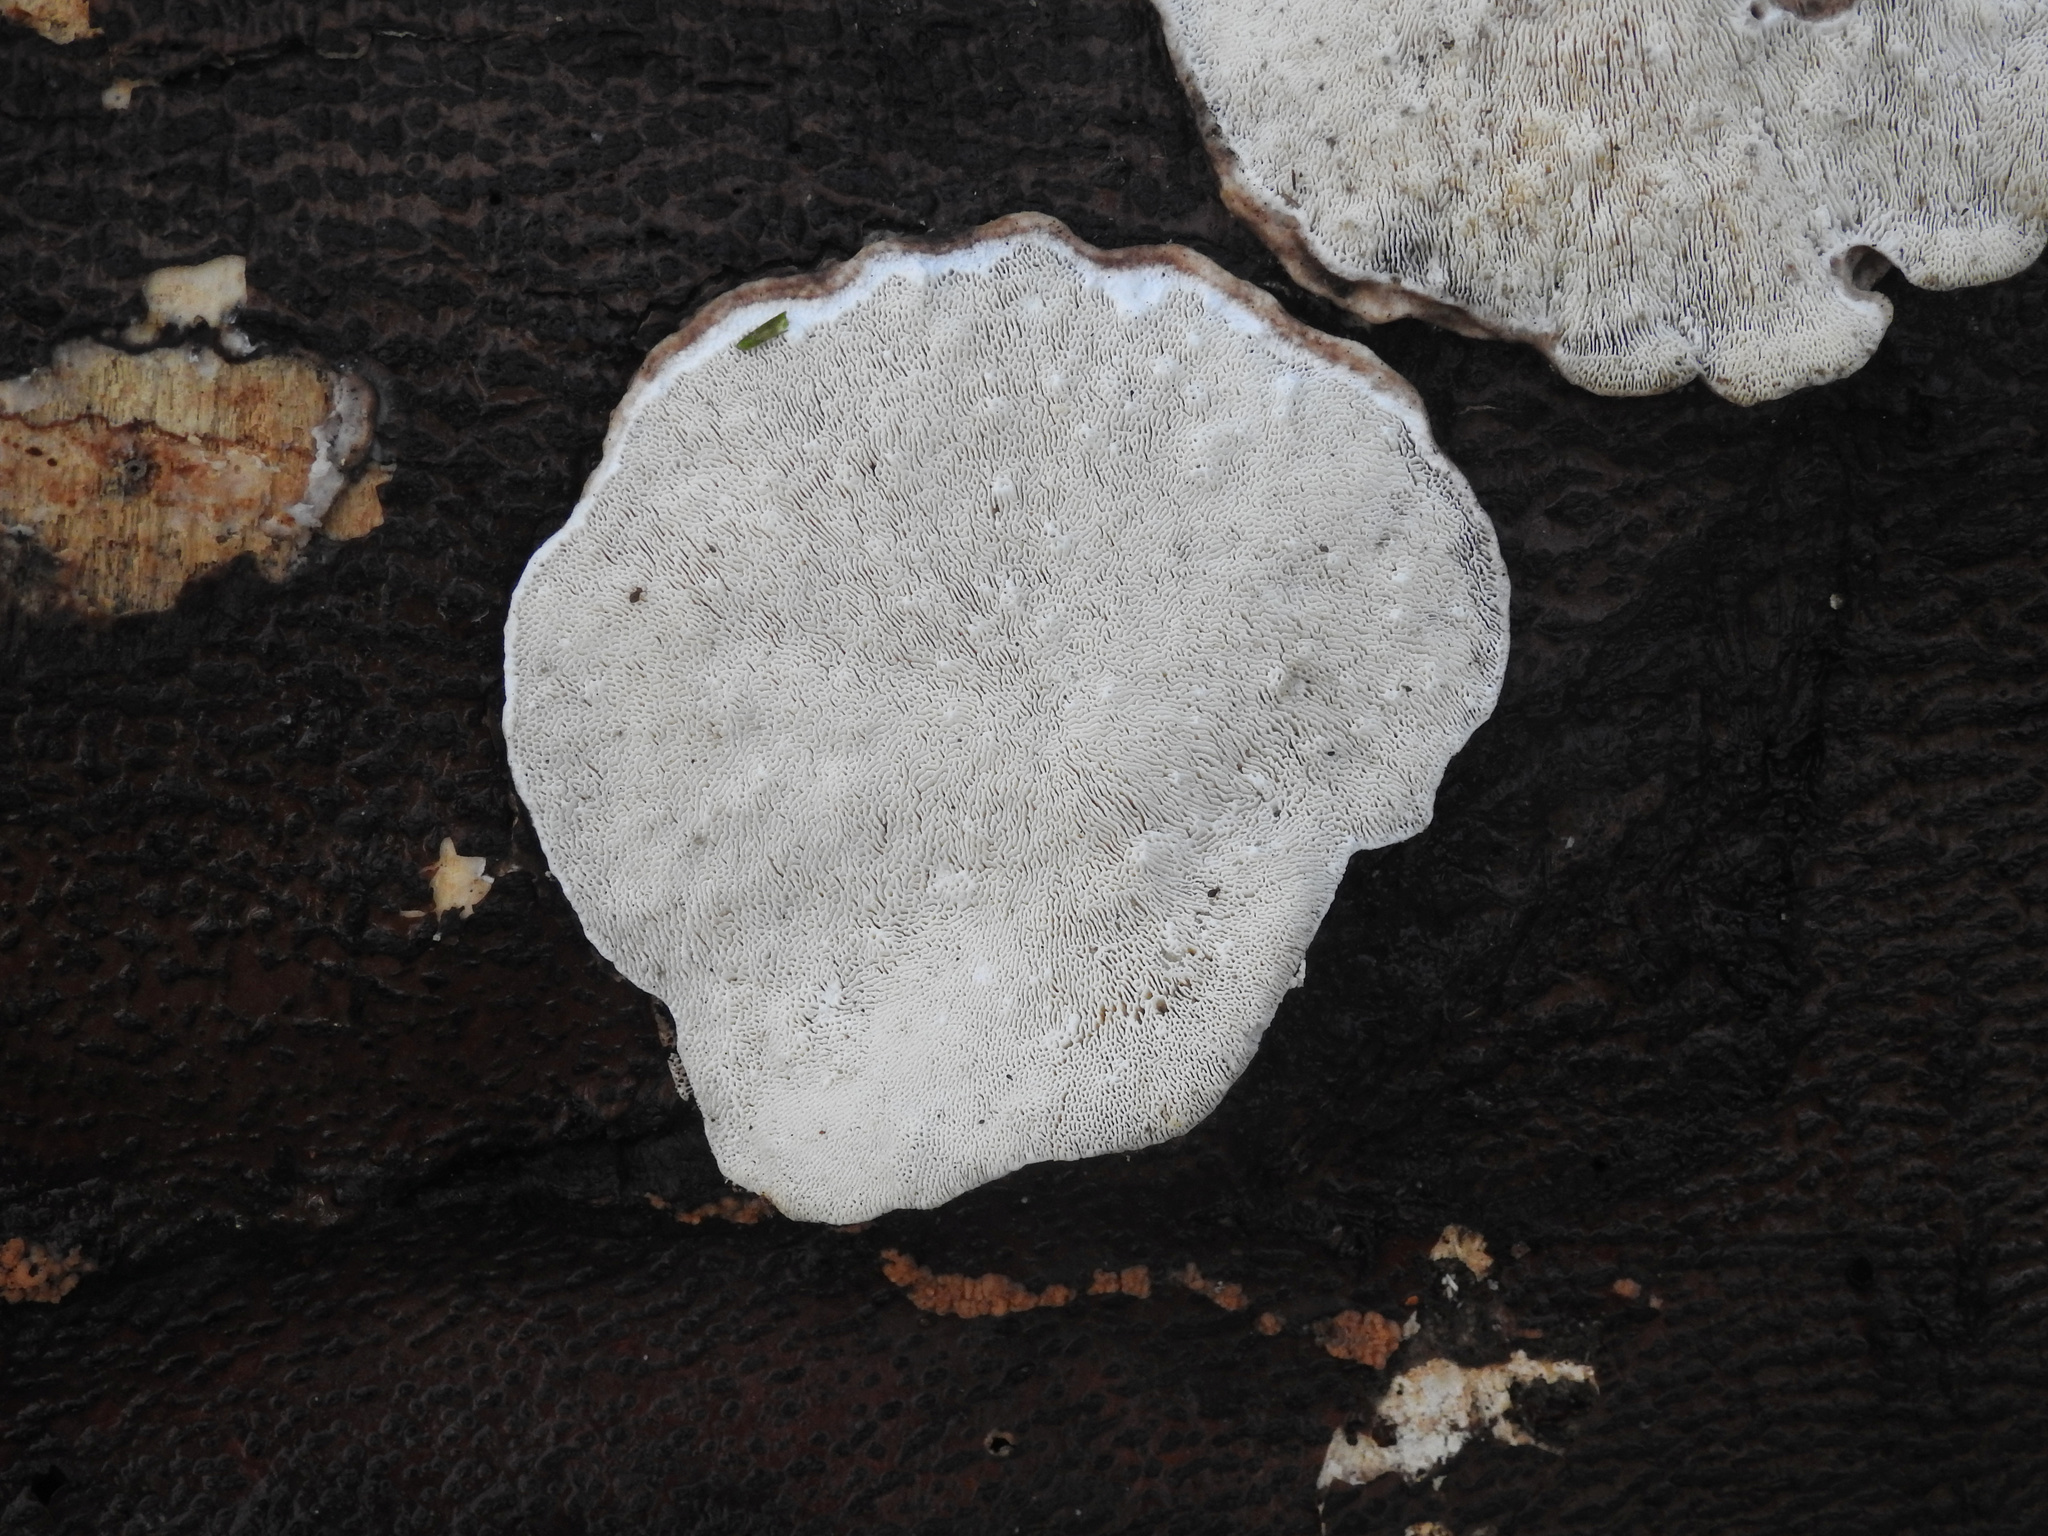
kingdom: Fungi
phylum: Basidiomycota
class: Agaricomycetes
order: Polyporales
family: Polyporaceae
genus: Trametes
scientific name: Trametes
